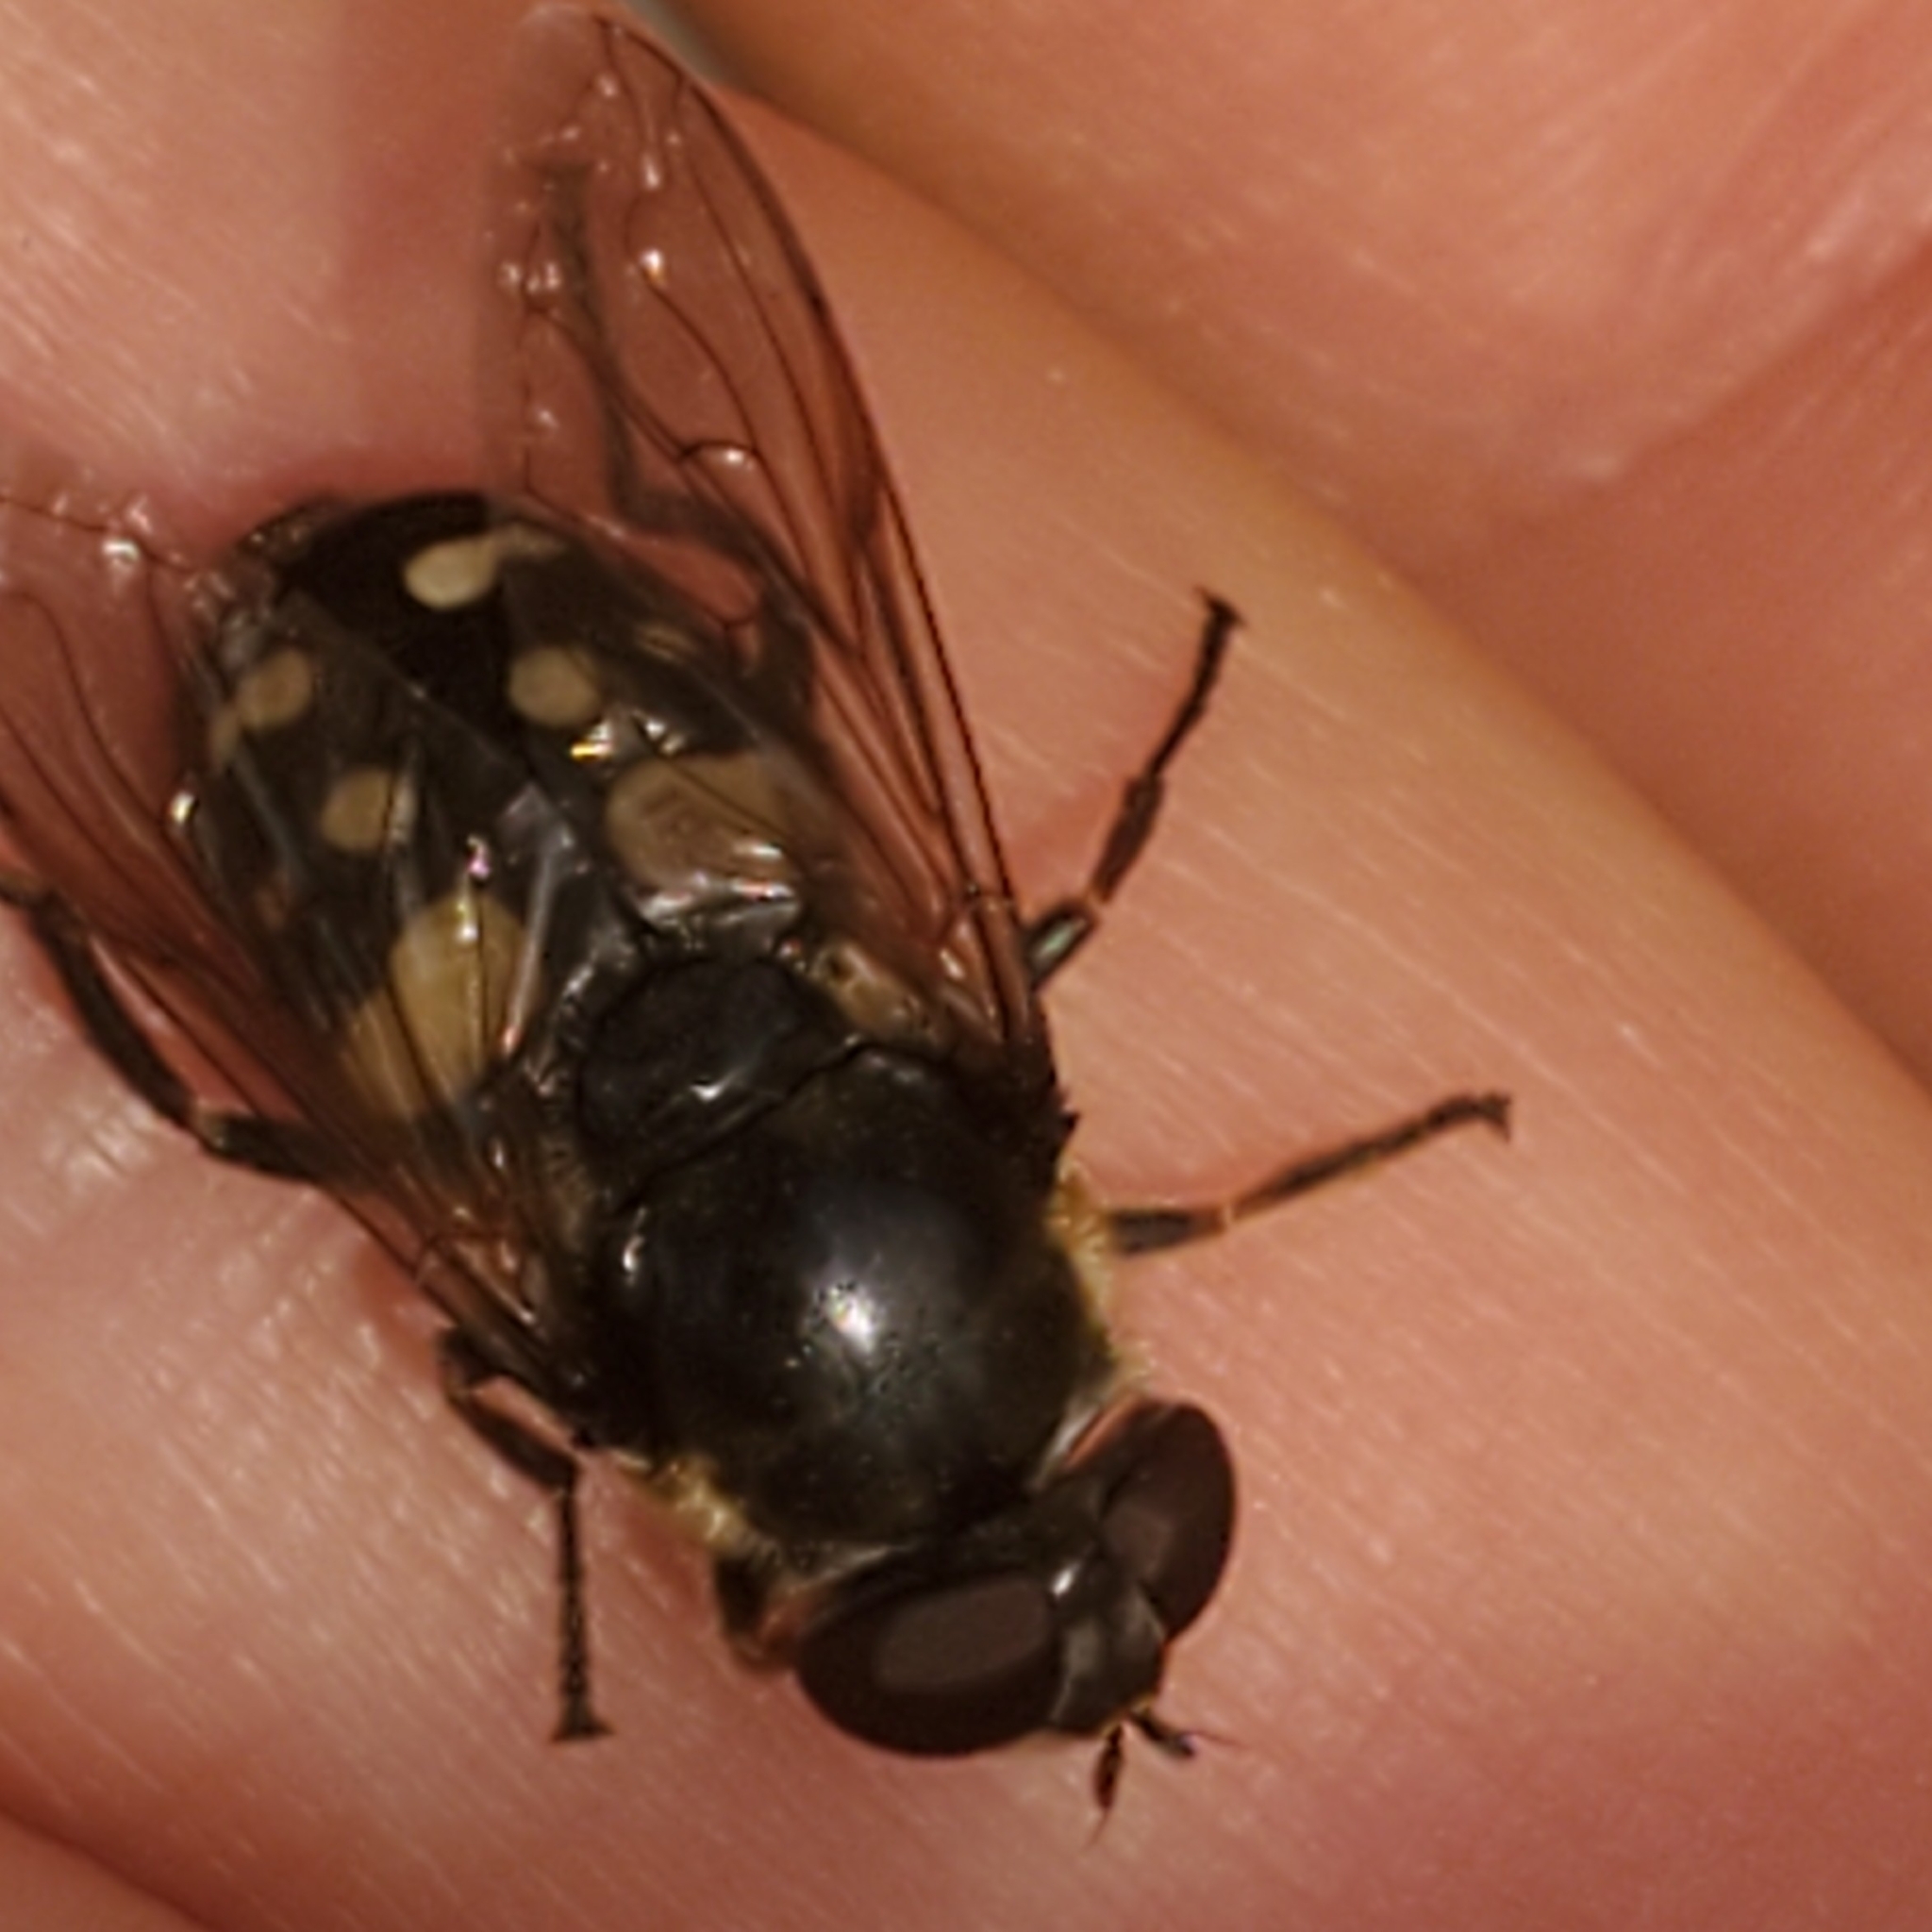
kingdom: Animalia
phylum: Arthropoda
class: Insecta
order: Diptera
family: Syrphidae
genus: Sericomyia
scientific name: Sericomyia lata
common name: White-spotted pond fly
